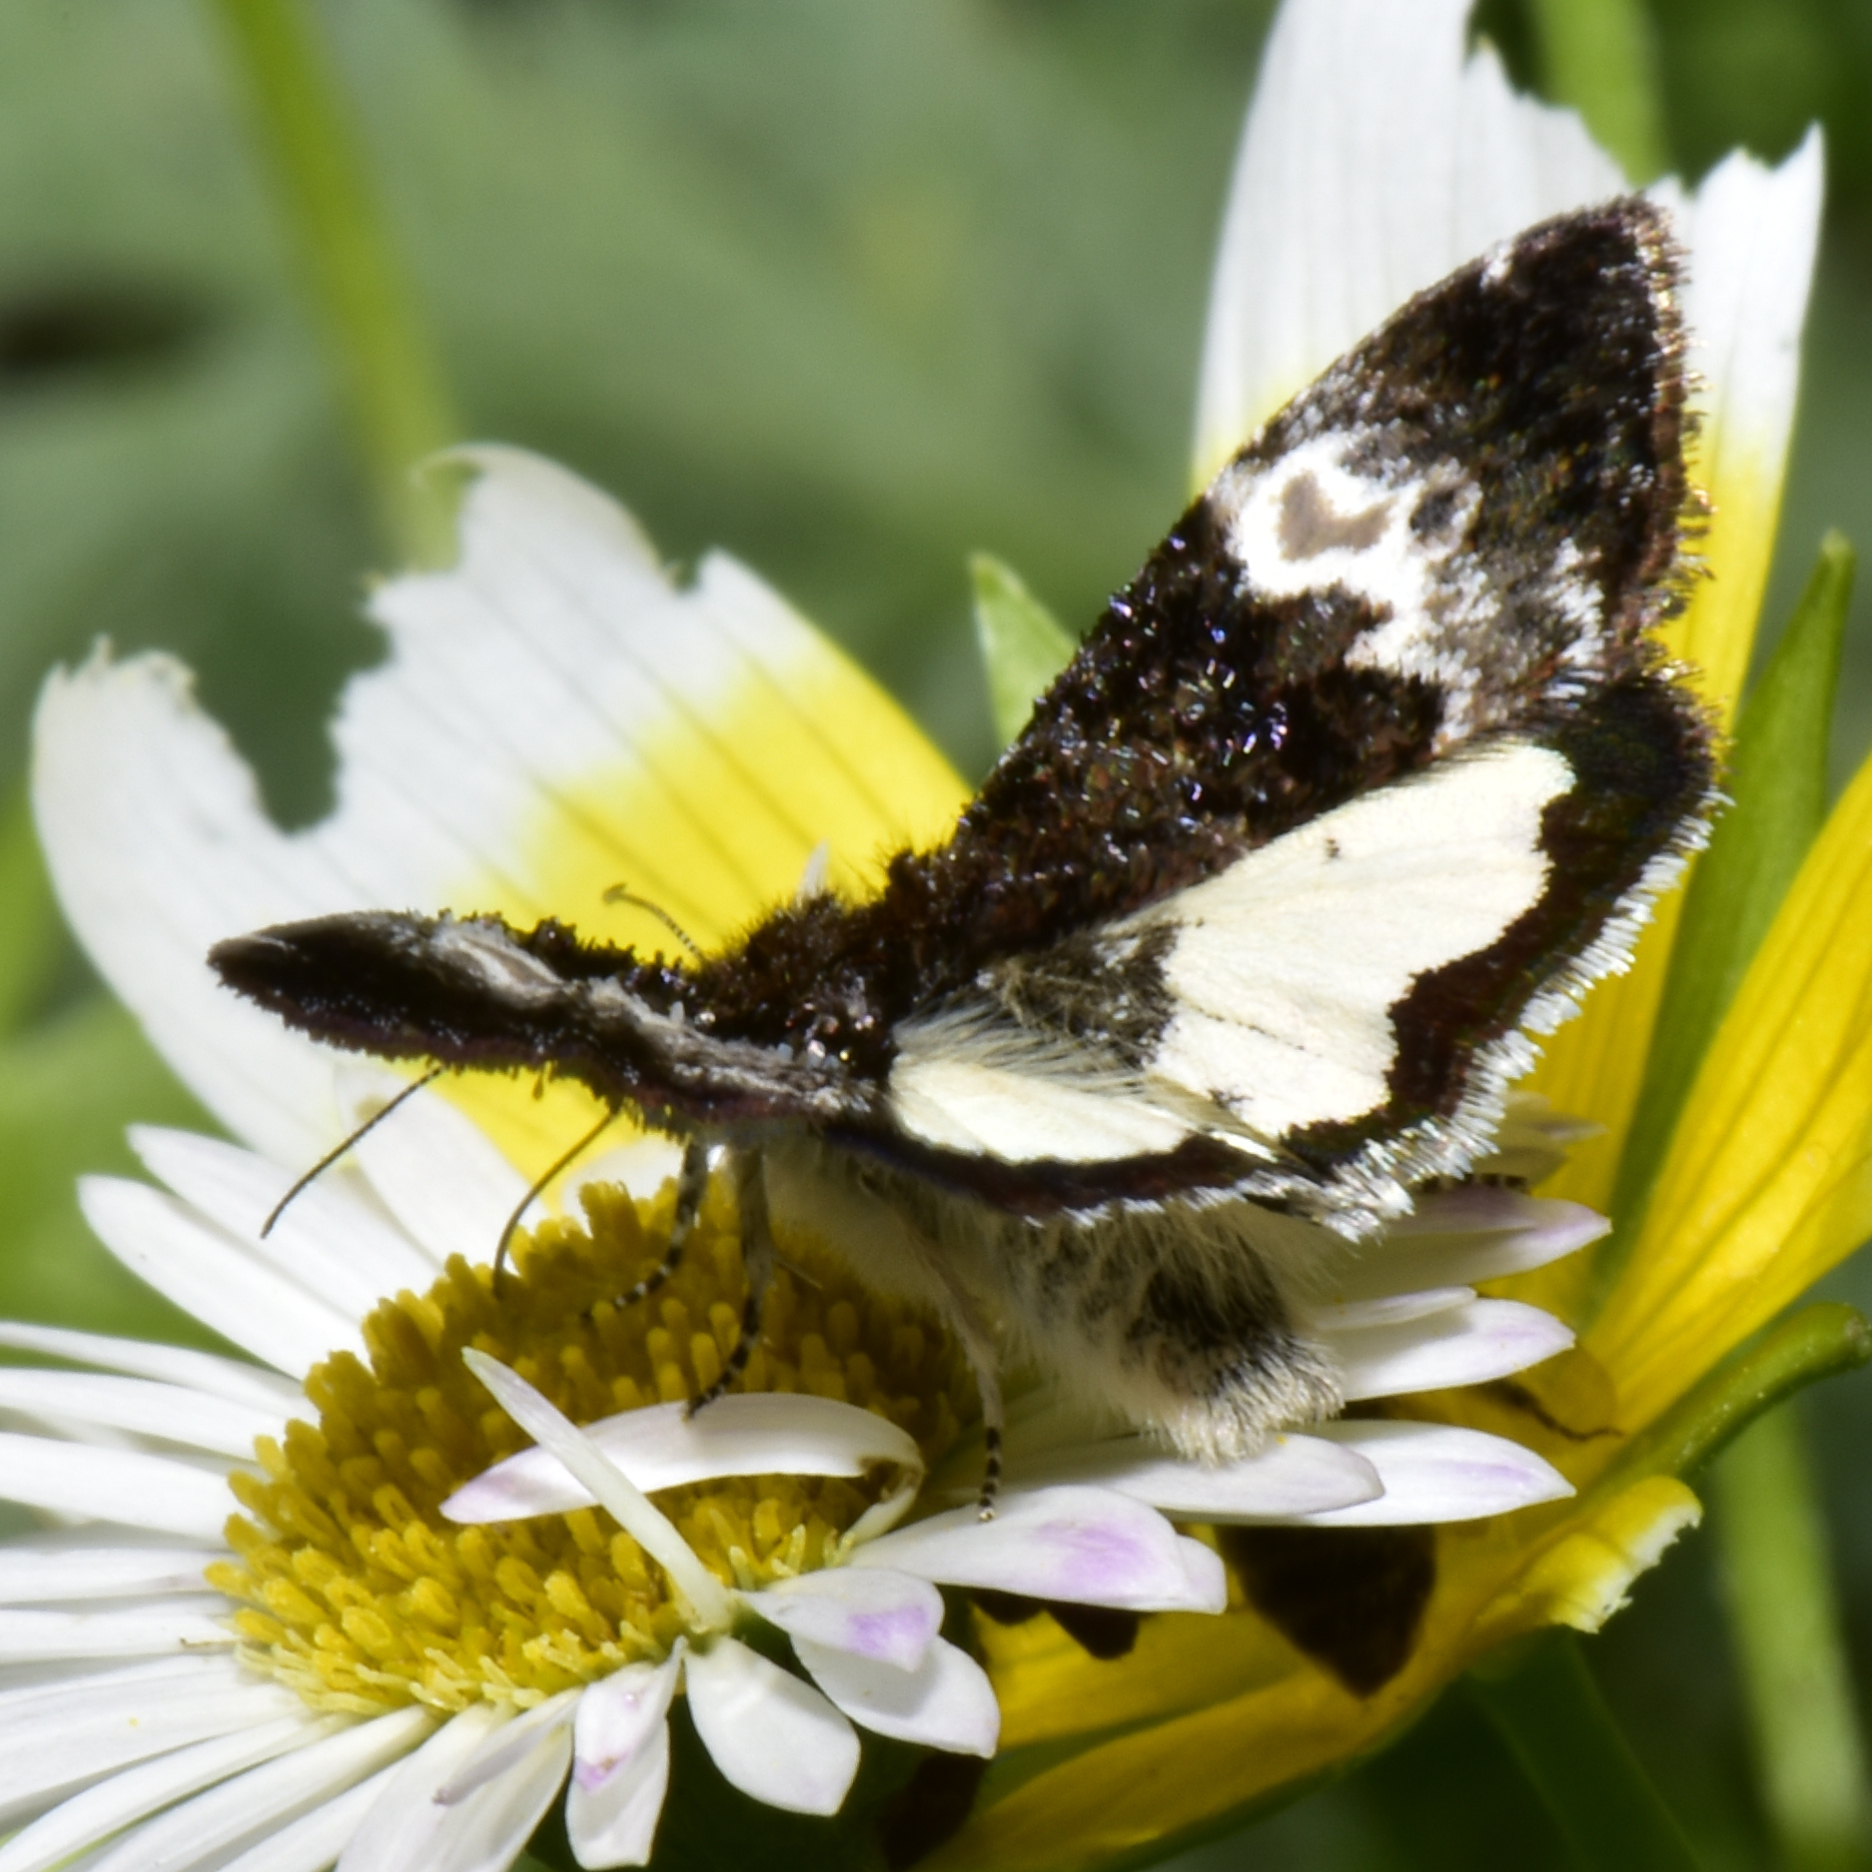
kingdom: Animalia
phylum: Arthropoda
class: Insecta
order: Lepidoptera
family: Noctuidae
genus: Annaphila
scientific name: Annaphila diva
